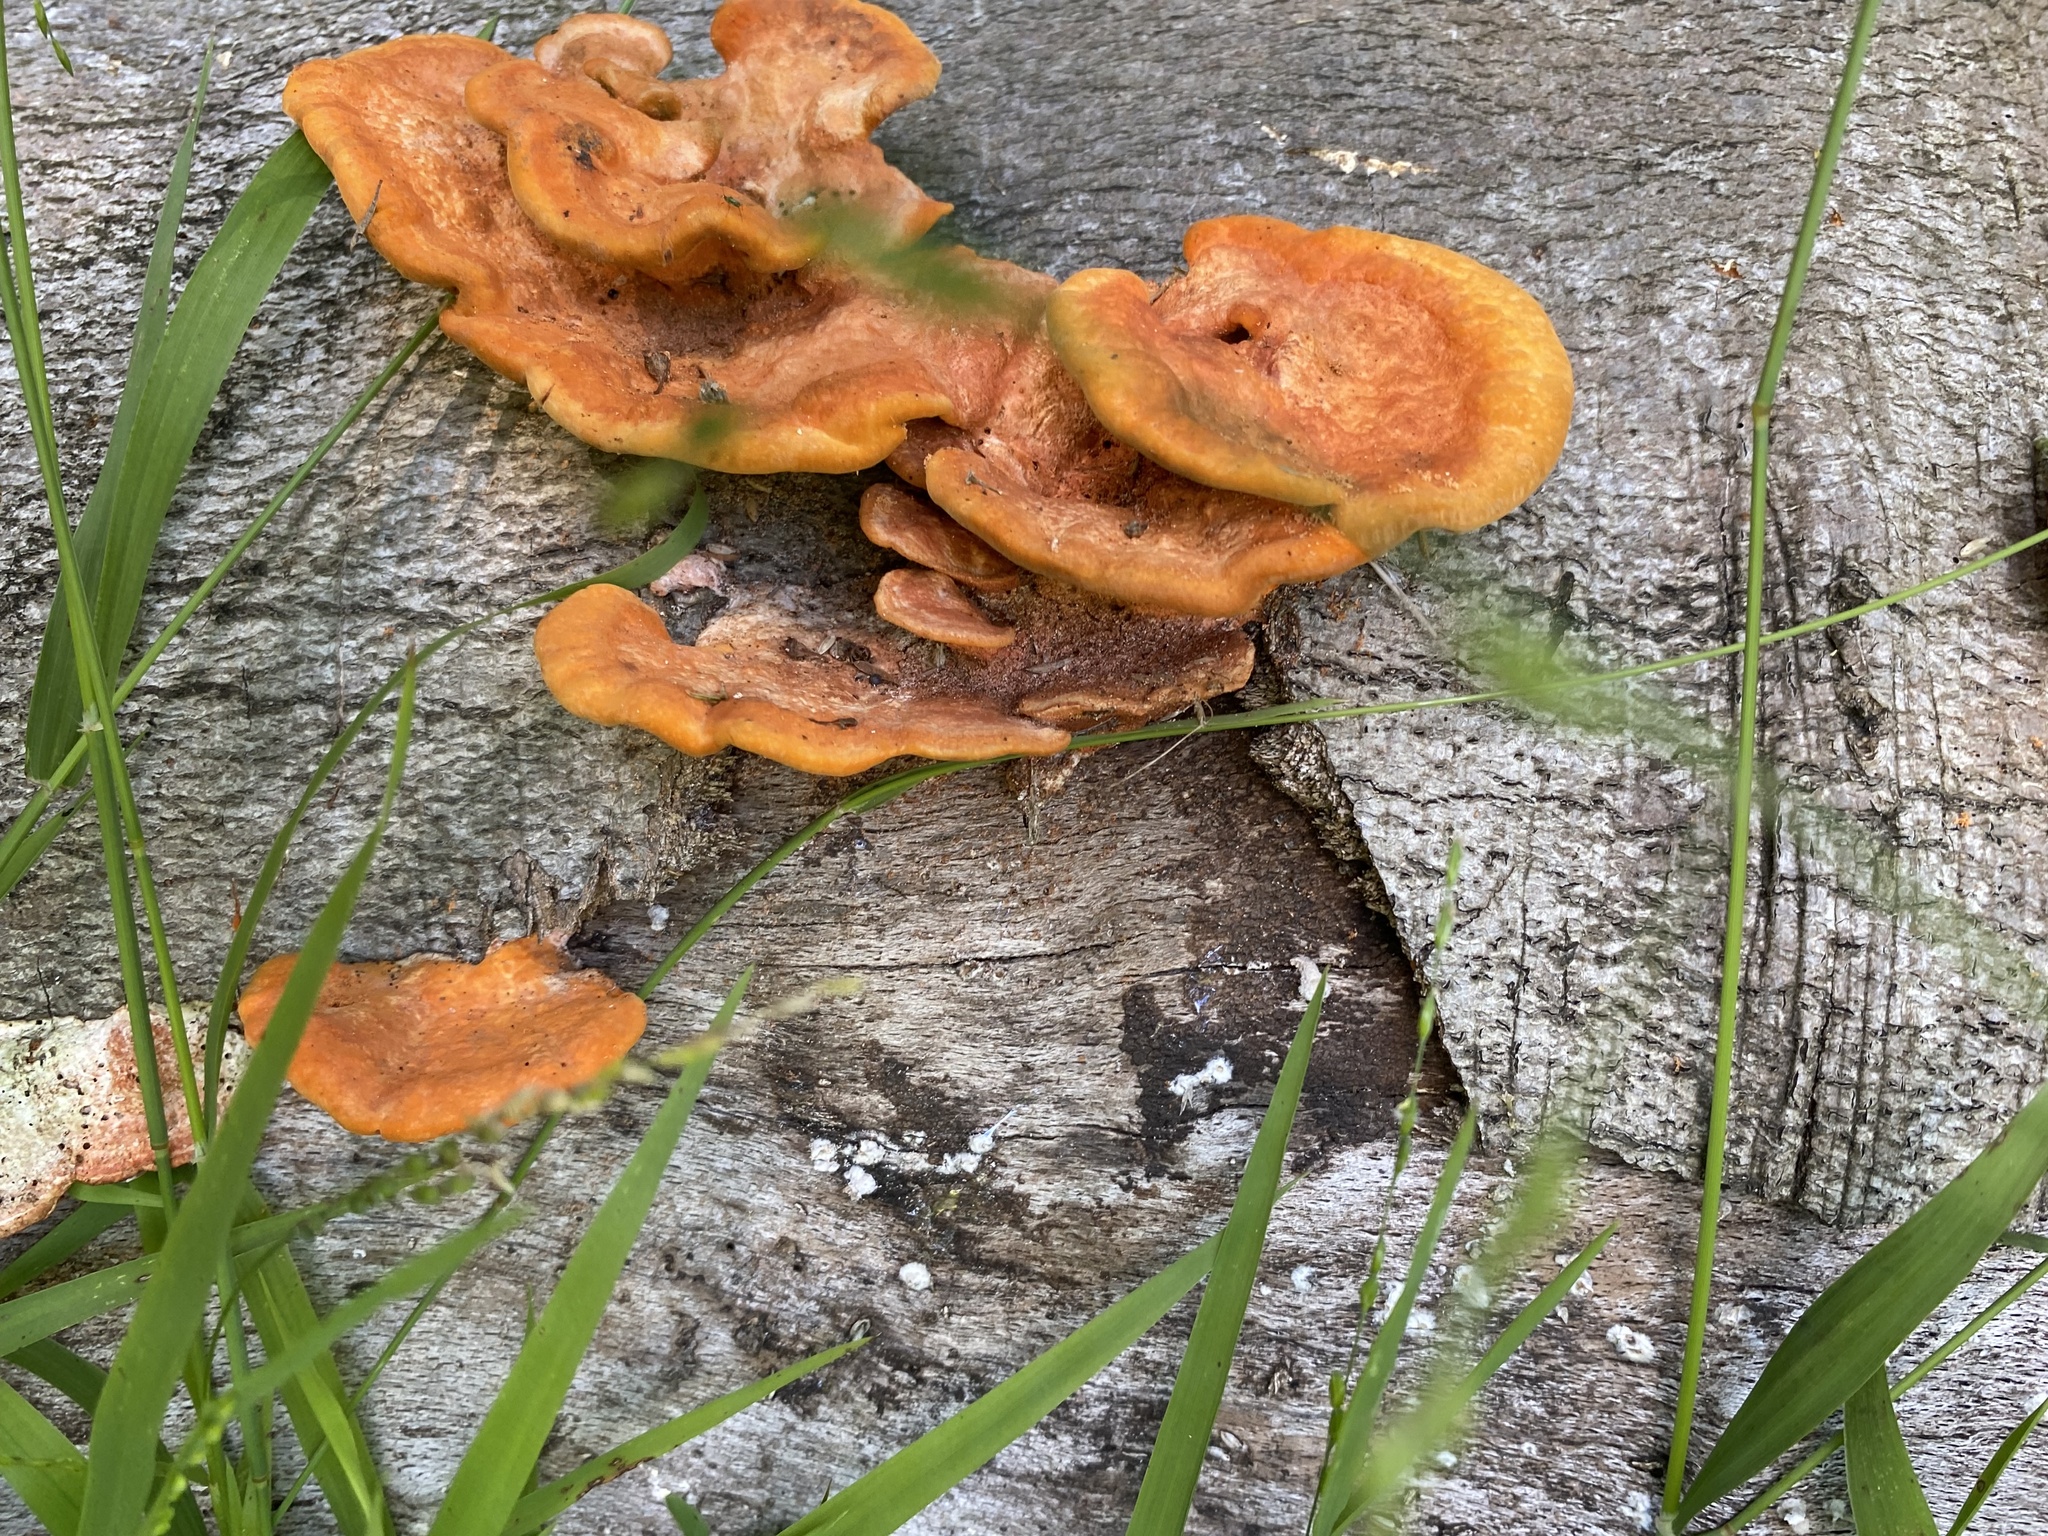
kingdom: Fungi
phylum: Basidiomycota
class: Agaricomycetes
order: Polyporales
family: Polyporaceae
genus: Trametes
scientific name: Trametes coccinea
